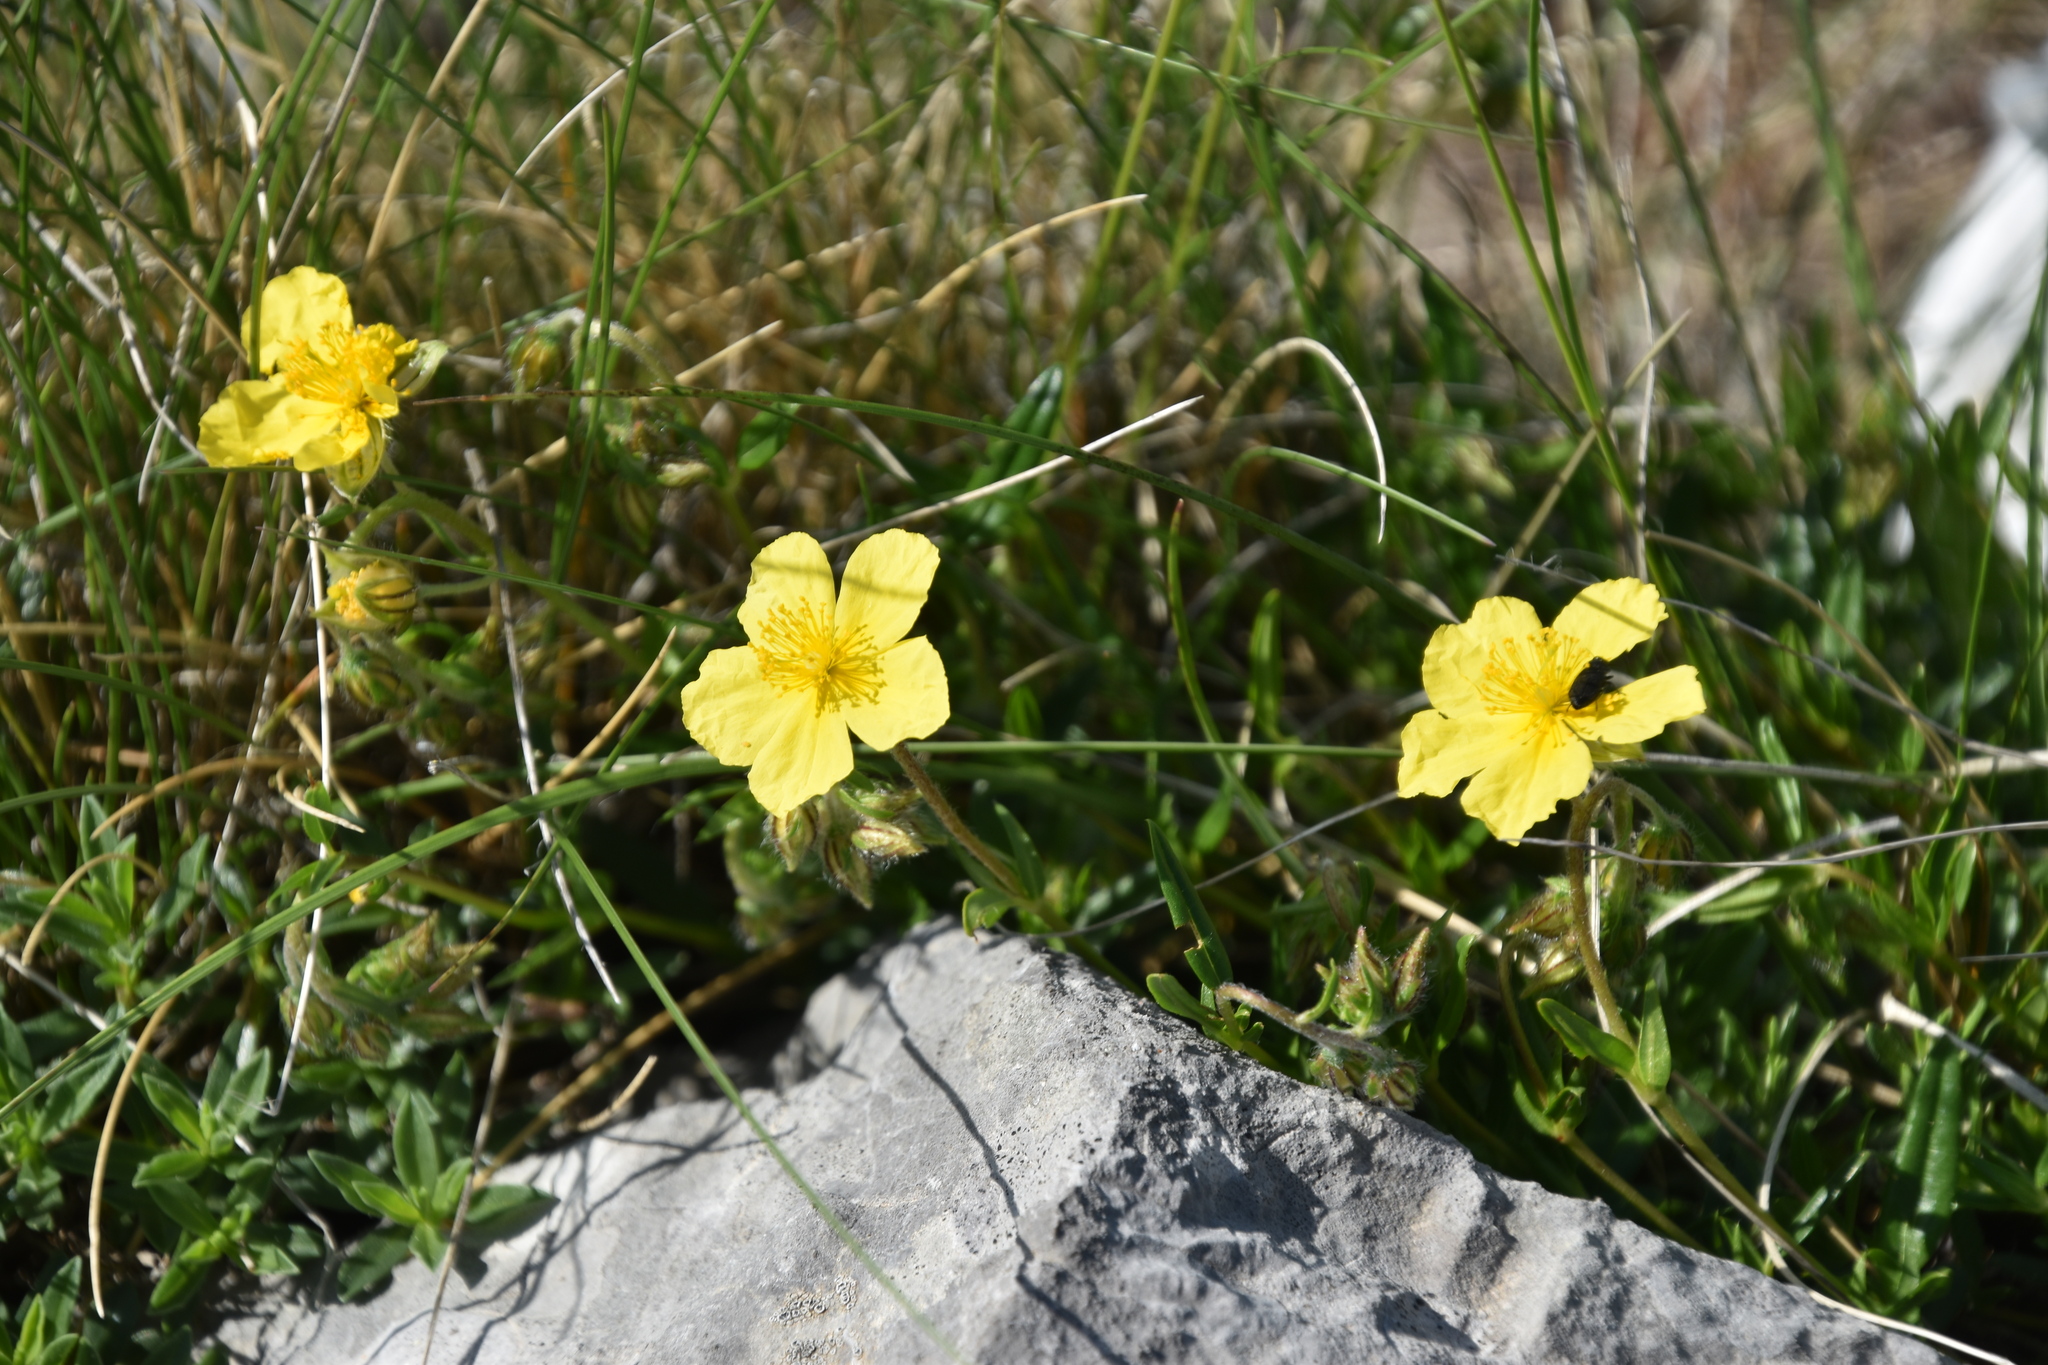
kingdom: Plantae
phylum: Tracheophyta
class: Magnoliopsida
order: Malvales
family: Cistaceae
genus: Helianthemum
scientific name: Helianthemum nummularium
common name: Common rock-rose
